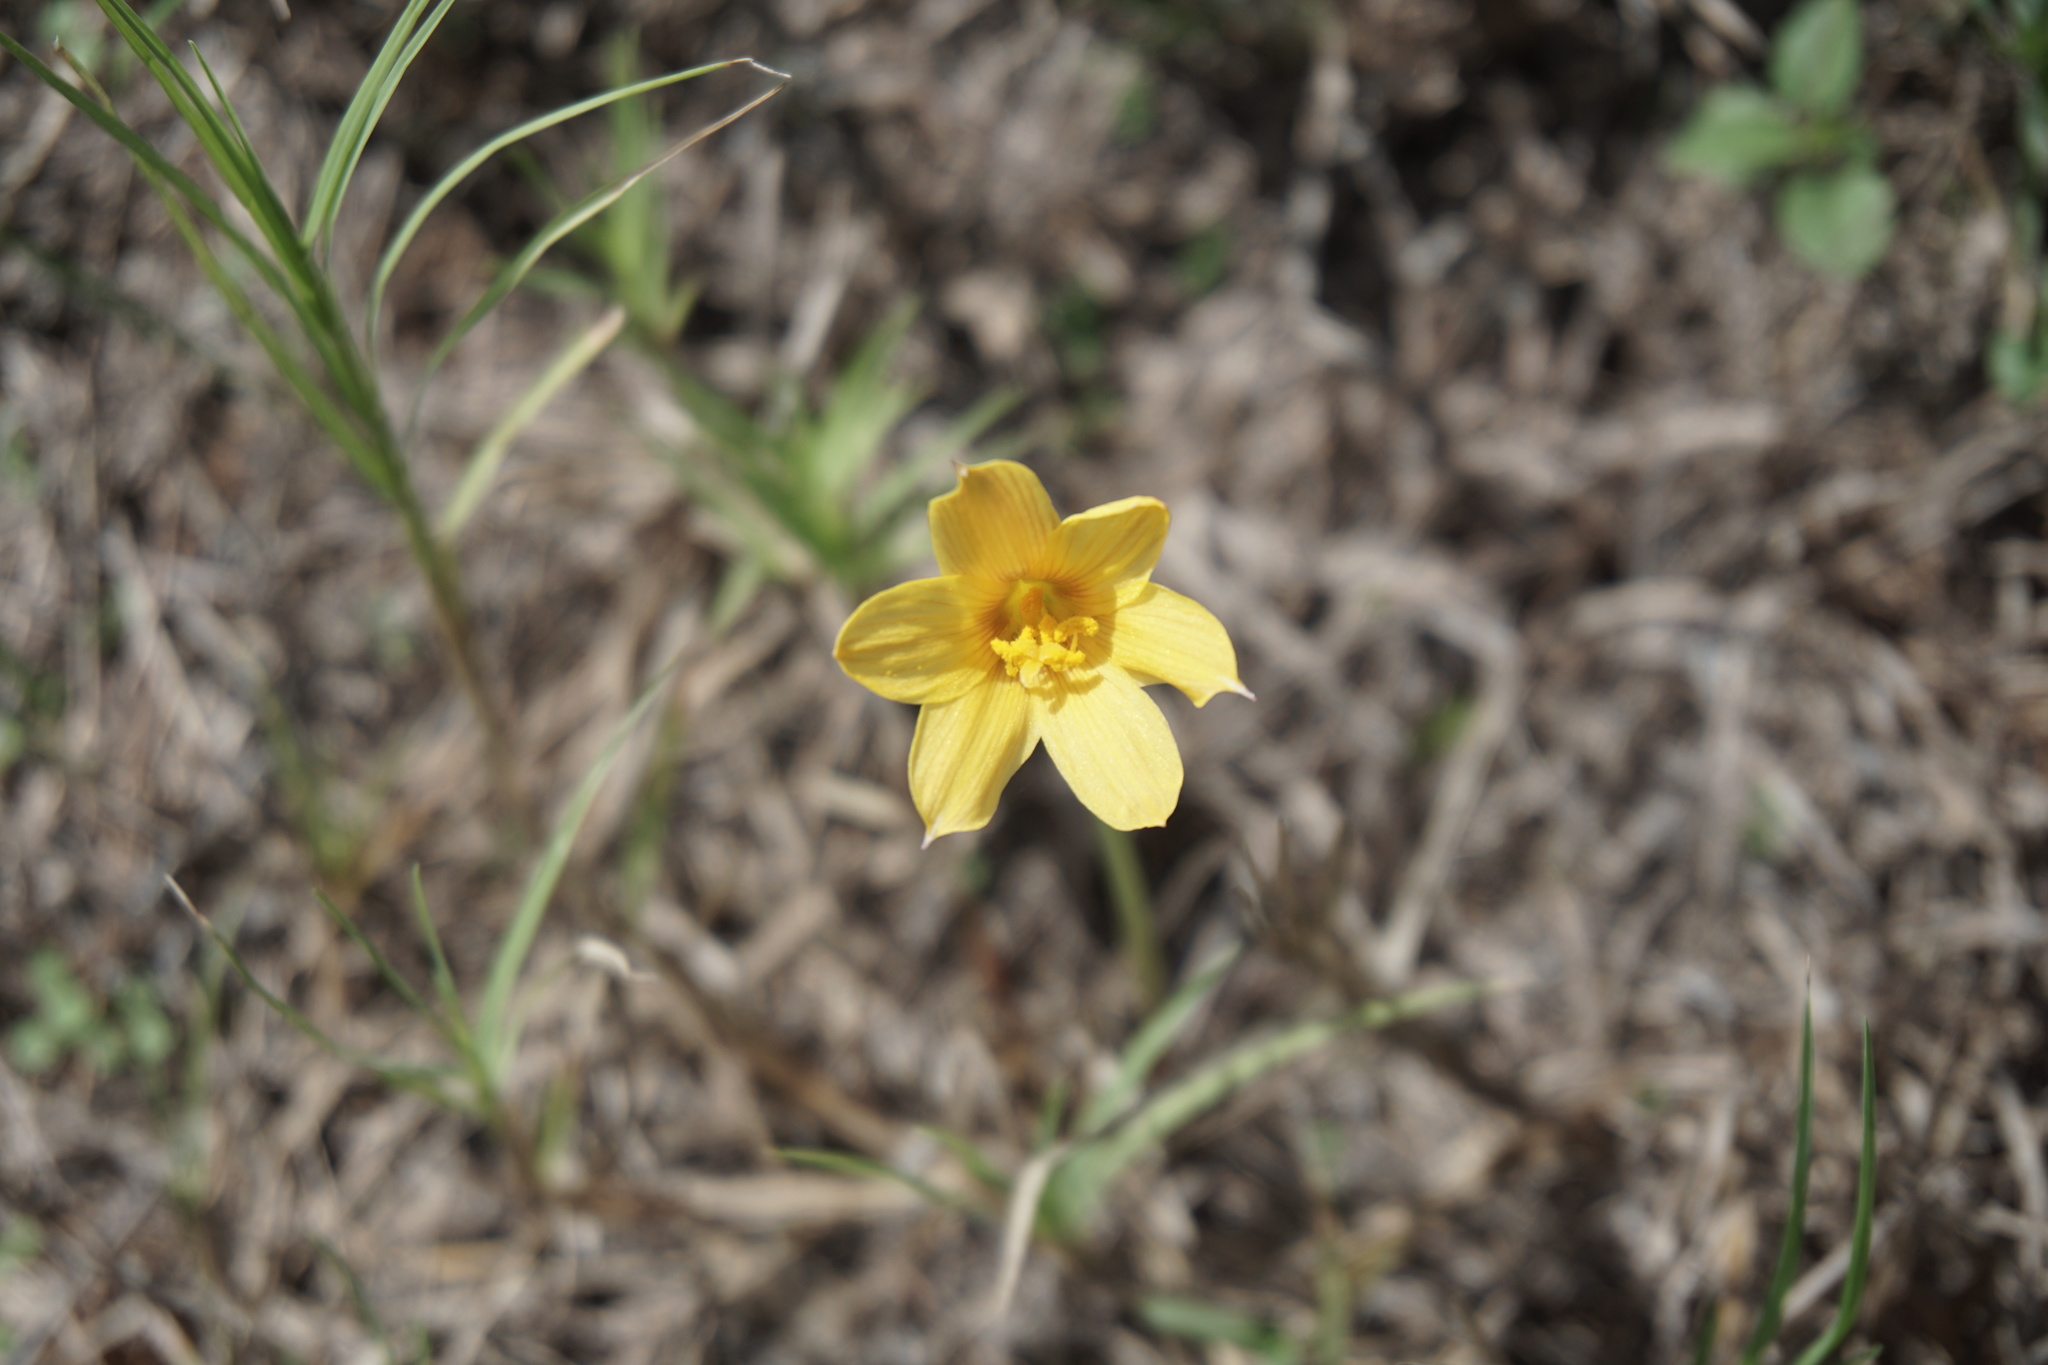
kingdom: Plantae
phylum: Tracheophyta
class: Liliopsida
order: Asparagales
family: Amaryllidaceae
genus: Zephyranthes
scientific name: Zephyranthes tubispatha
